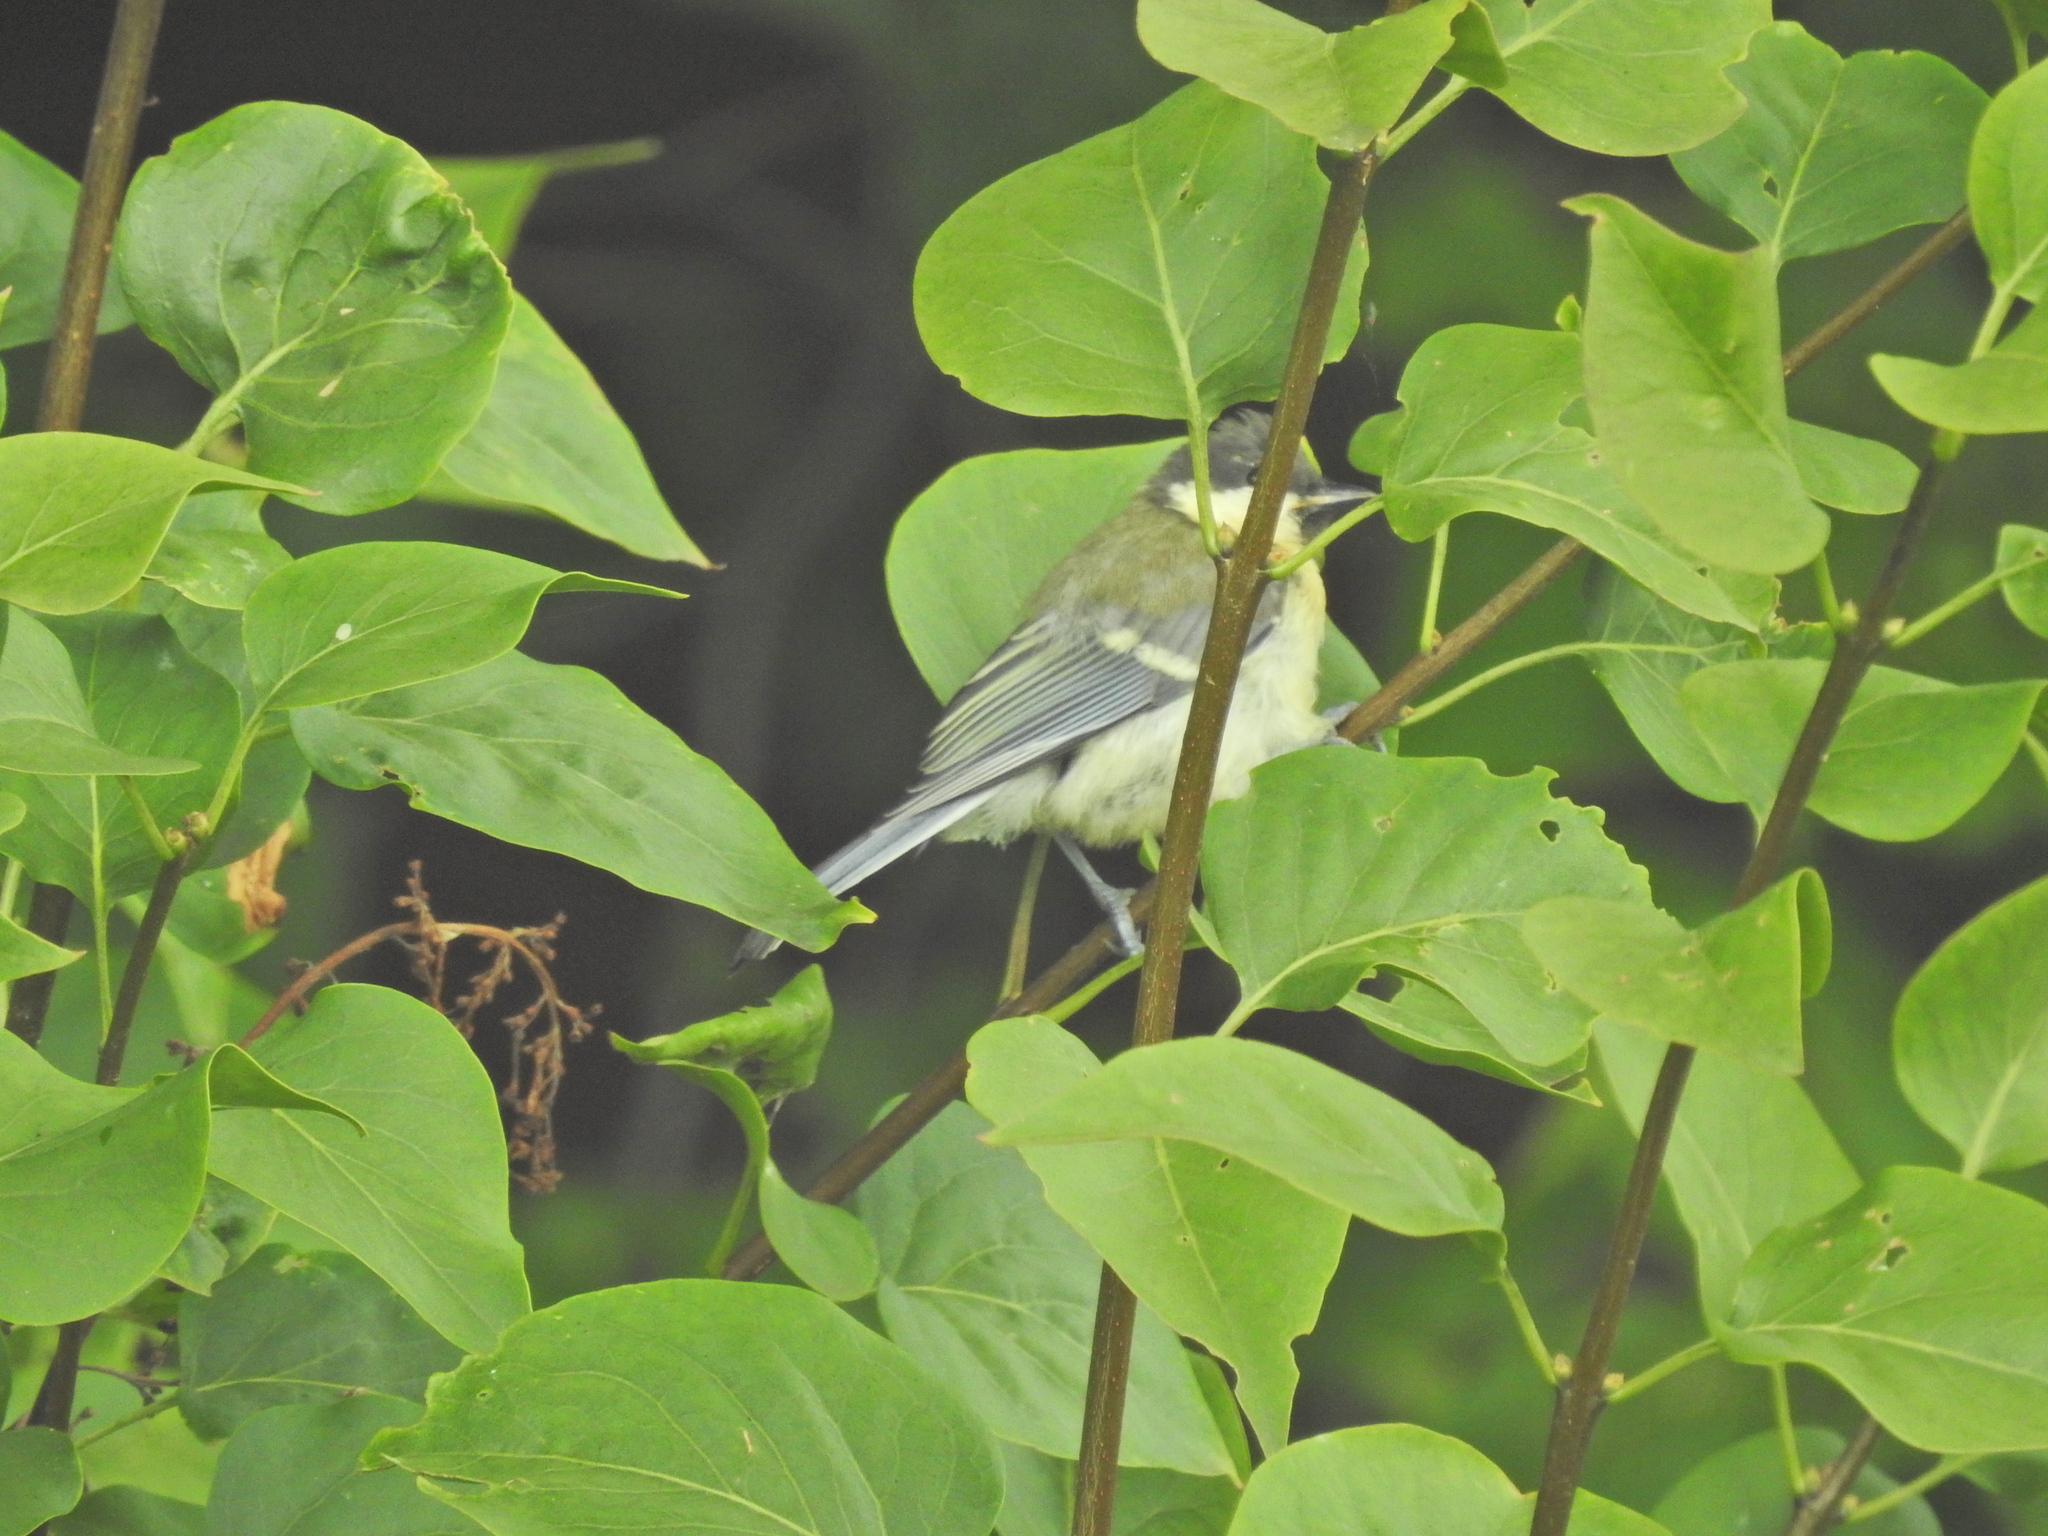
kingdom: Animalia
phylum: Chordata
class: Aves
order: Passeriformes
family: Paridae
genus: Parus
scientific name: Parus major
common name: Great tit
